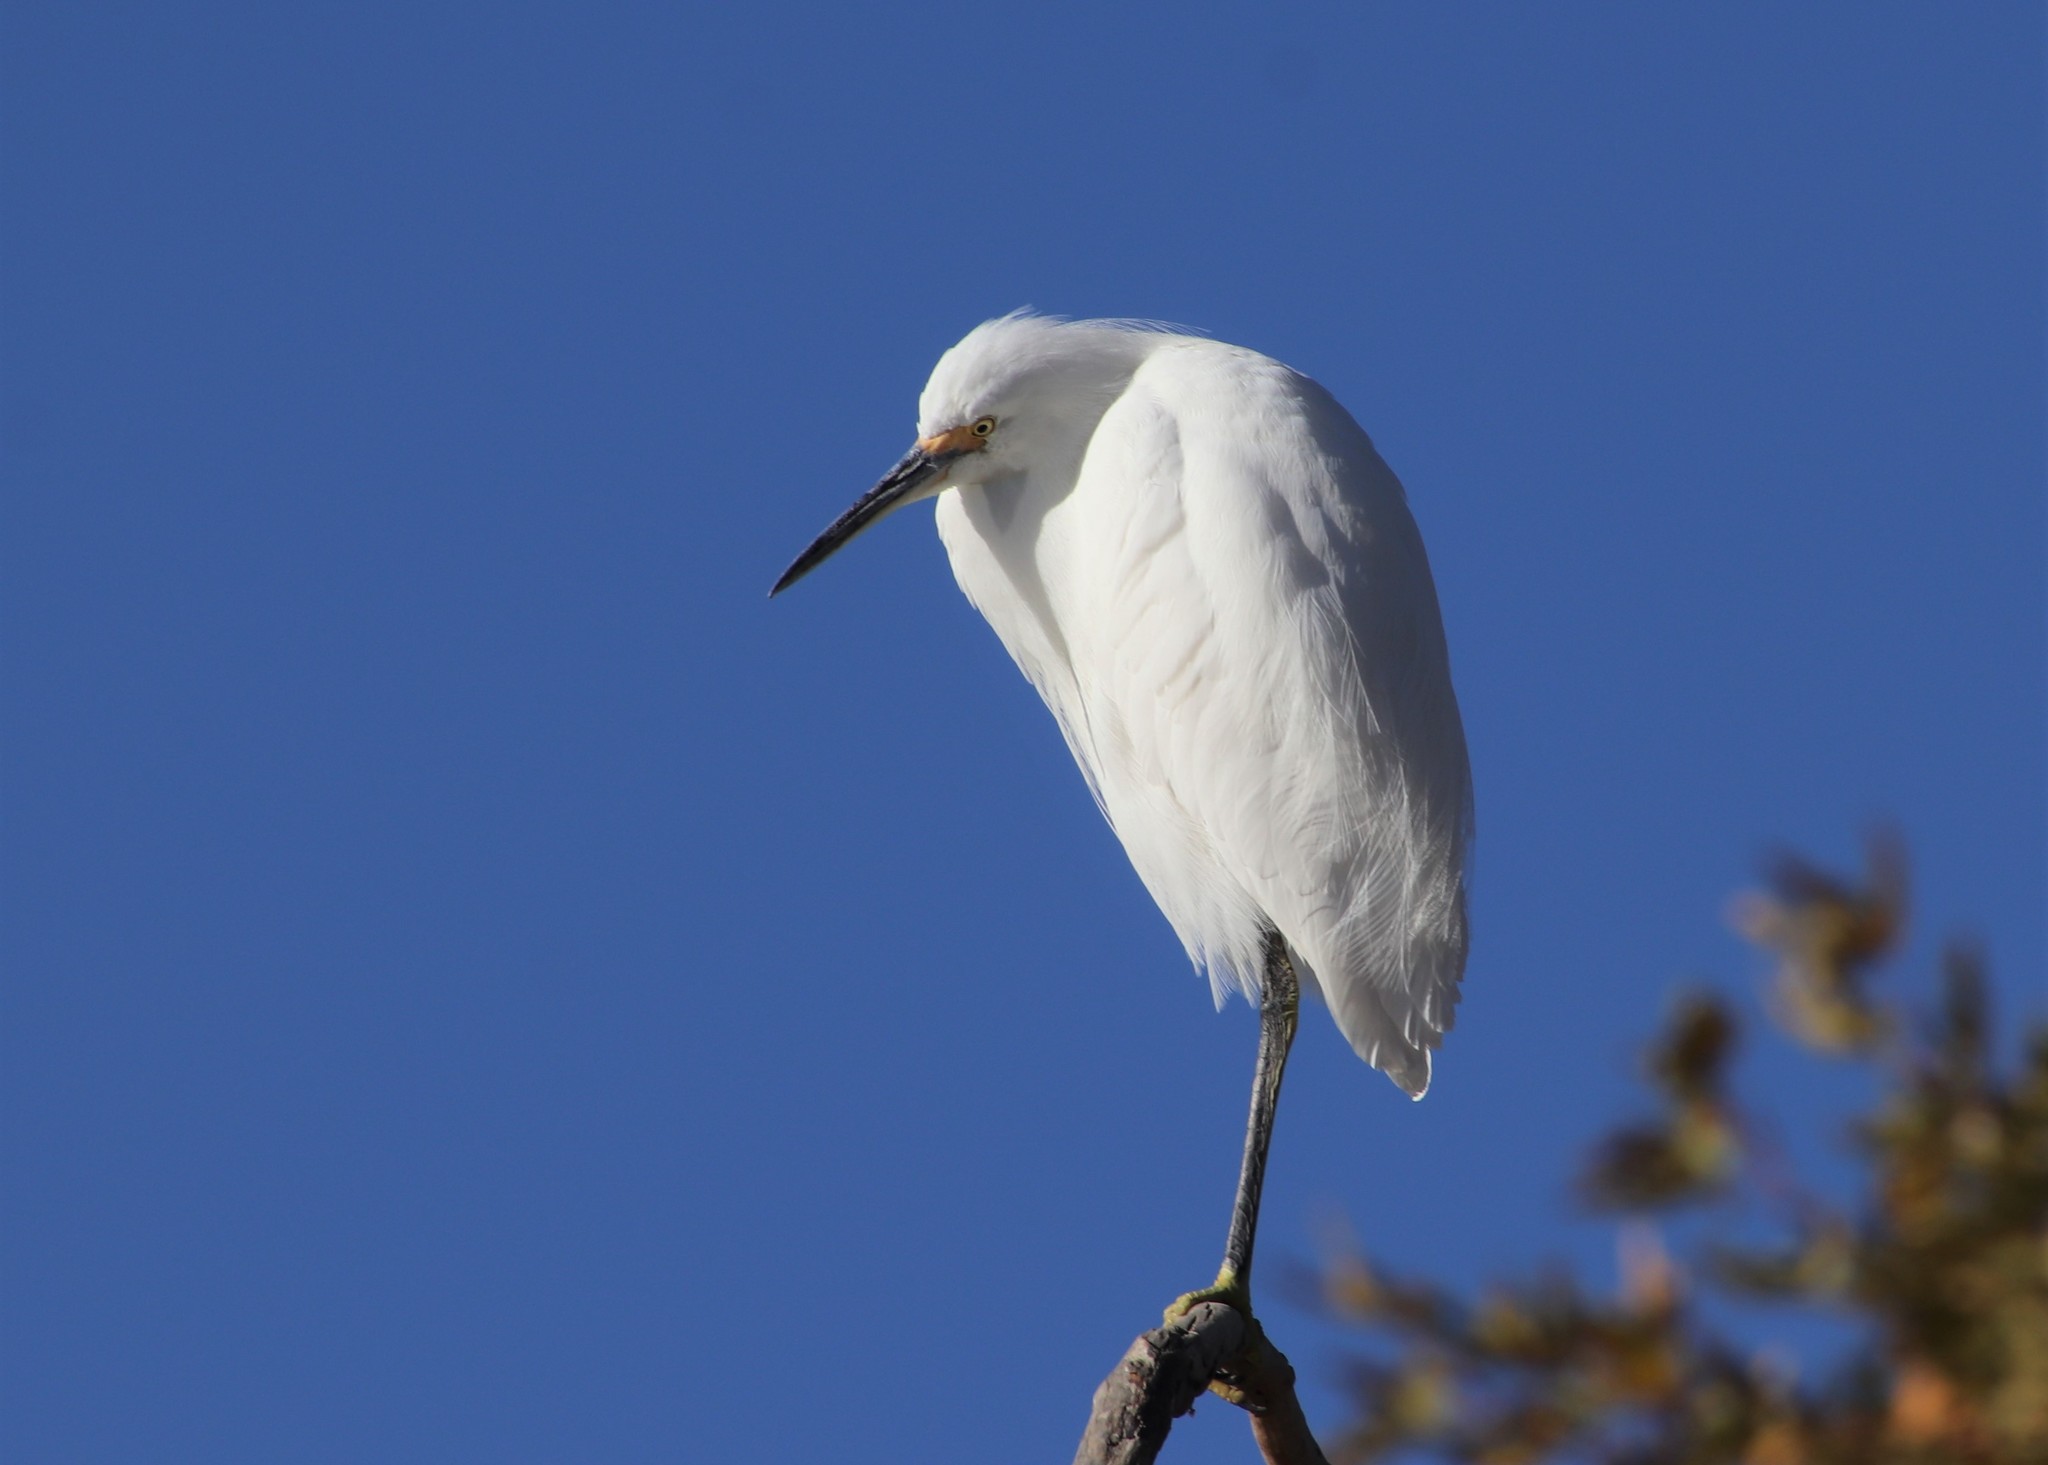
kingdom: Animalia
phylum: Chordata
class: Aves
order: Pelecaniformes
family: Ardeidae
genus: Egretta
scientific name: Egretta thula
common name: Snowy egret
